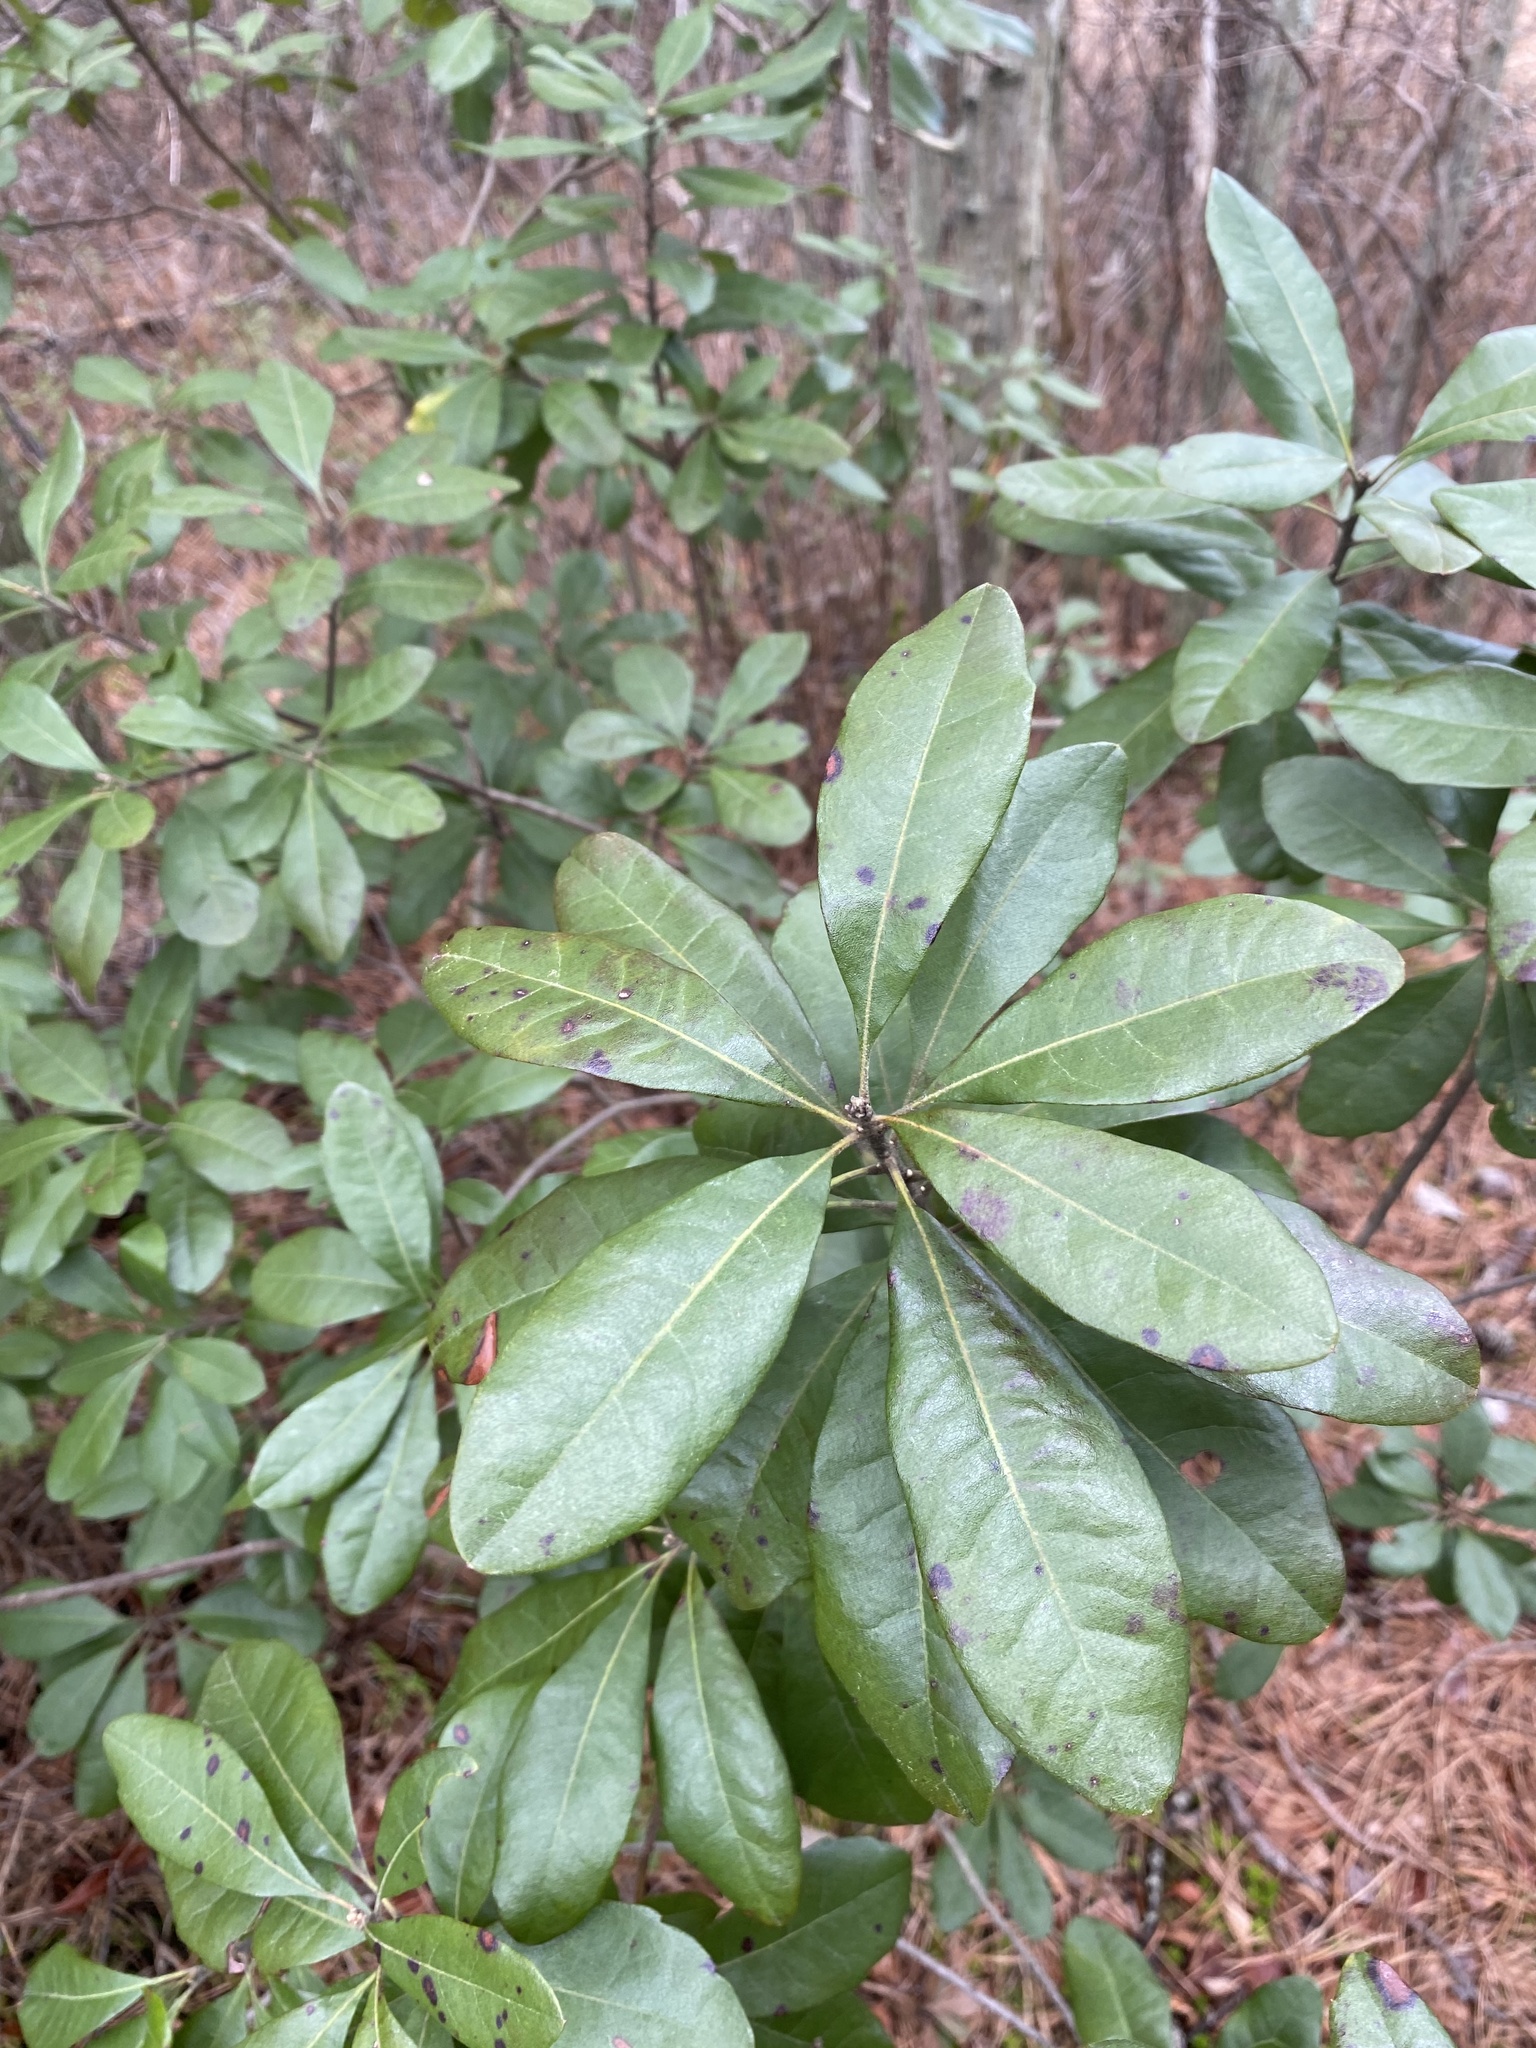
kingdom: Plantae
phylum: Tracheophyta
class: Magnoliopsida
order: Fagales
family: Myricaceae
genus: Morella
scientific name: Morella caroliniensis
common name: Evergreen bayberry
